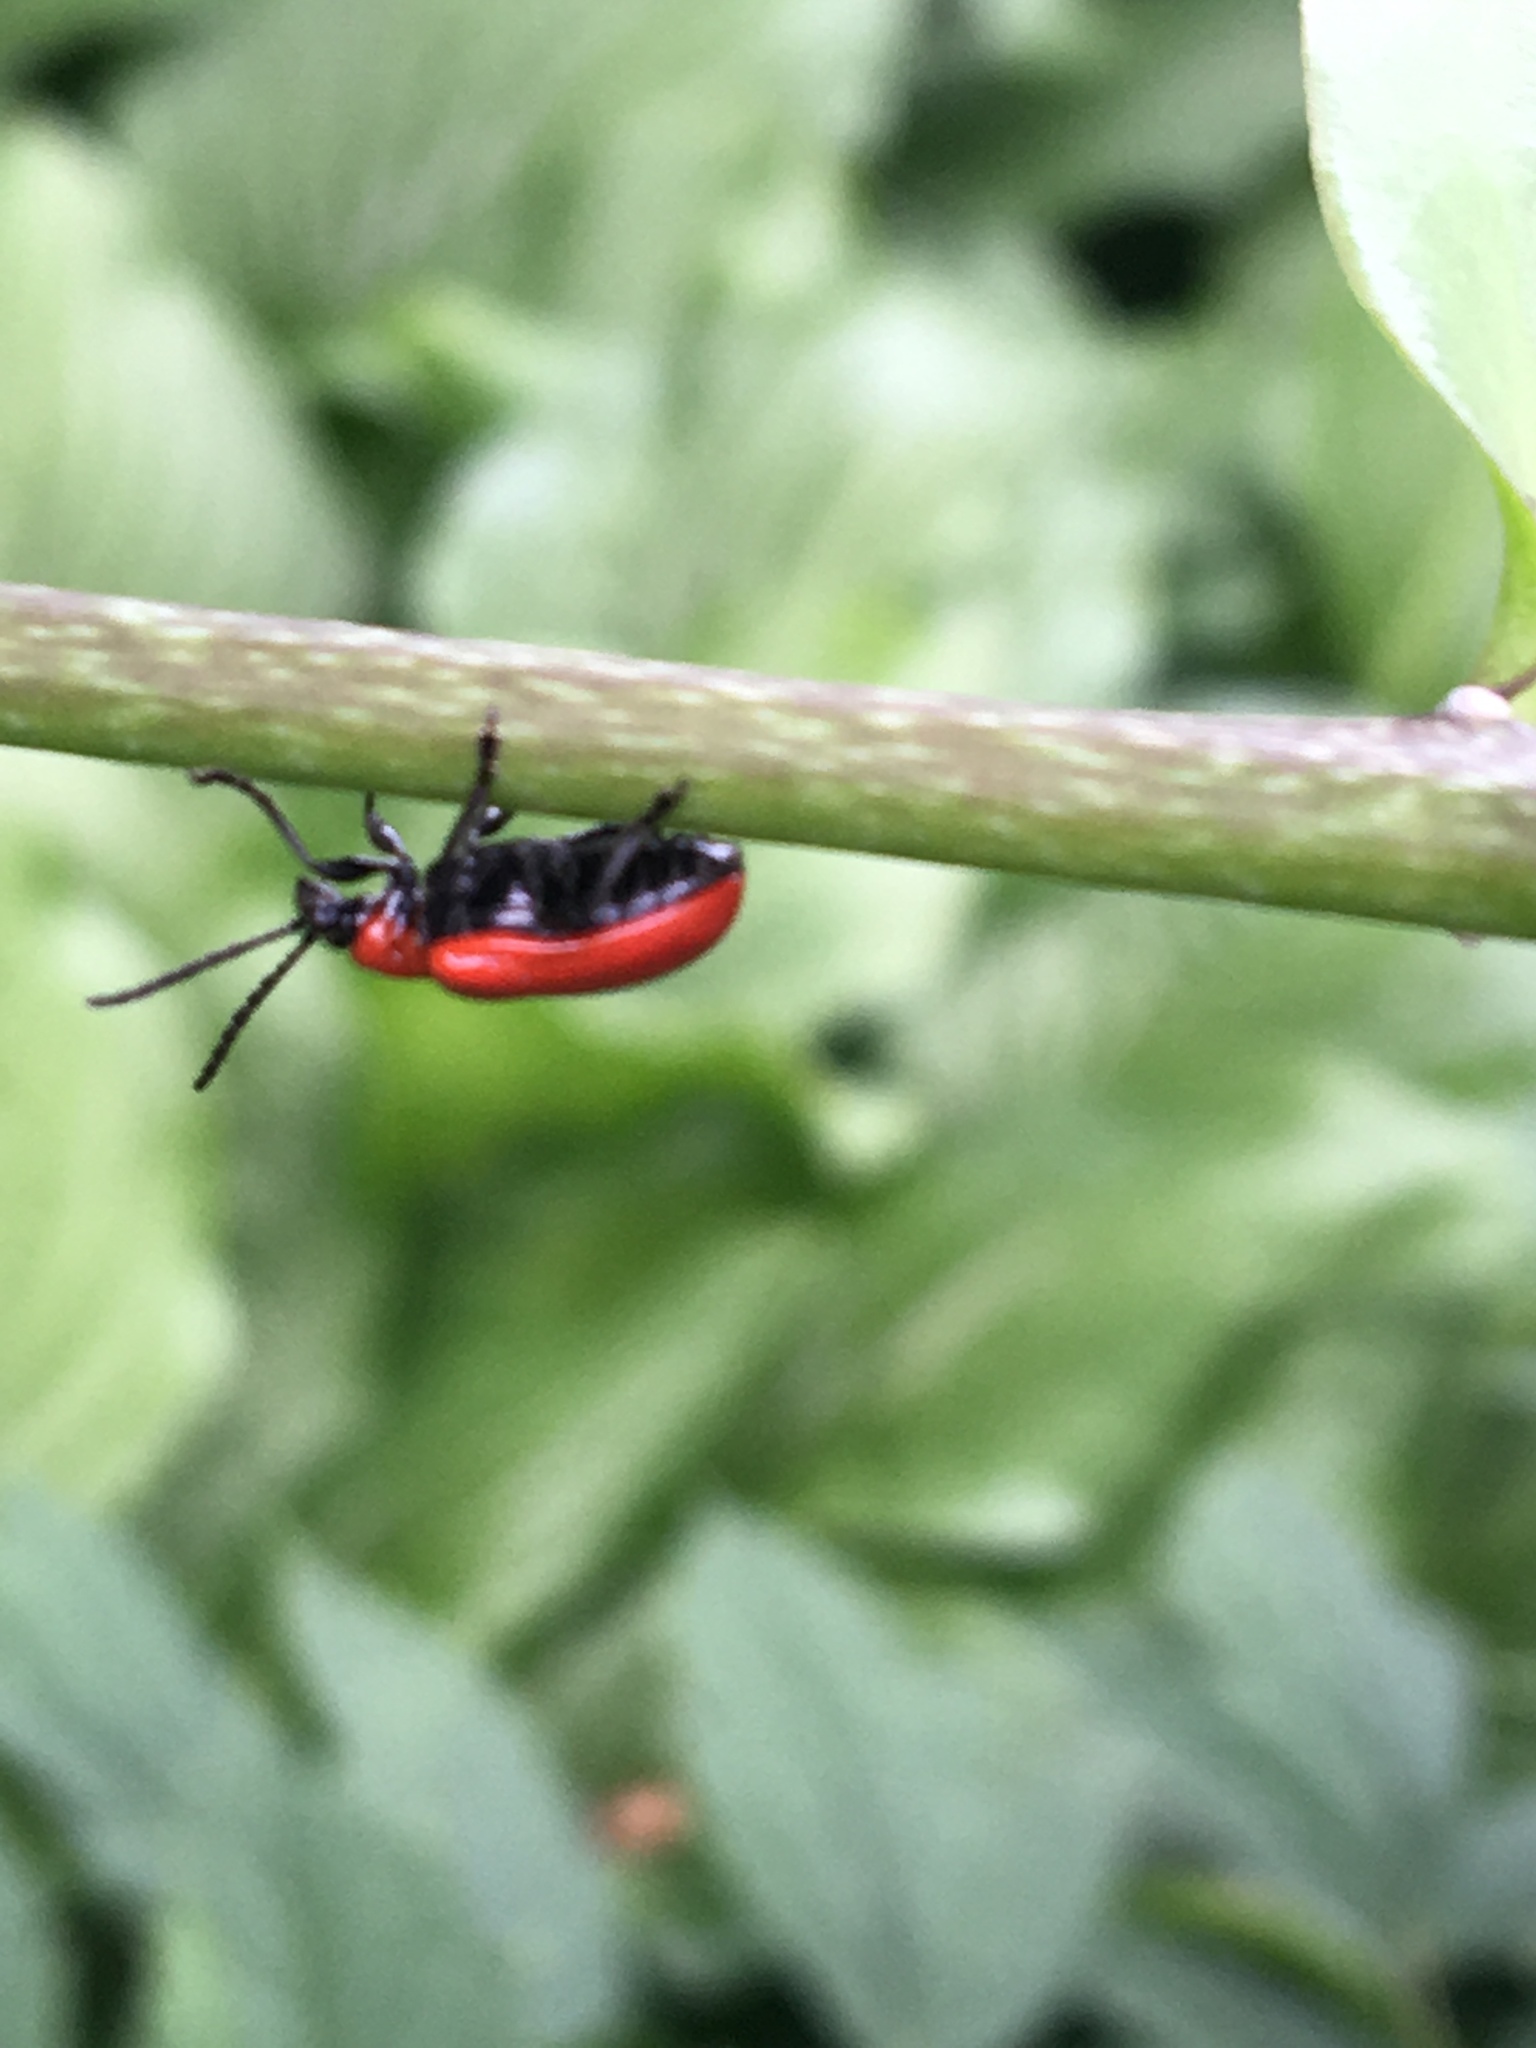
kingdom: Animalia
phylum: Arthropoda
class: Insecta
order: Coleoptera
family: Chrysomelidae
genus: Lilioceris
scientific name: Lilioceris lilii
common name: Lily beetle
